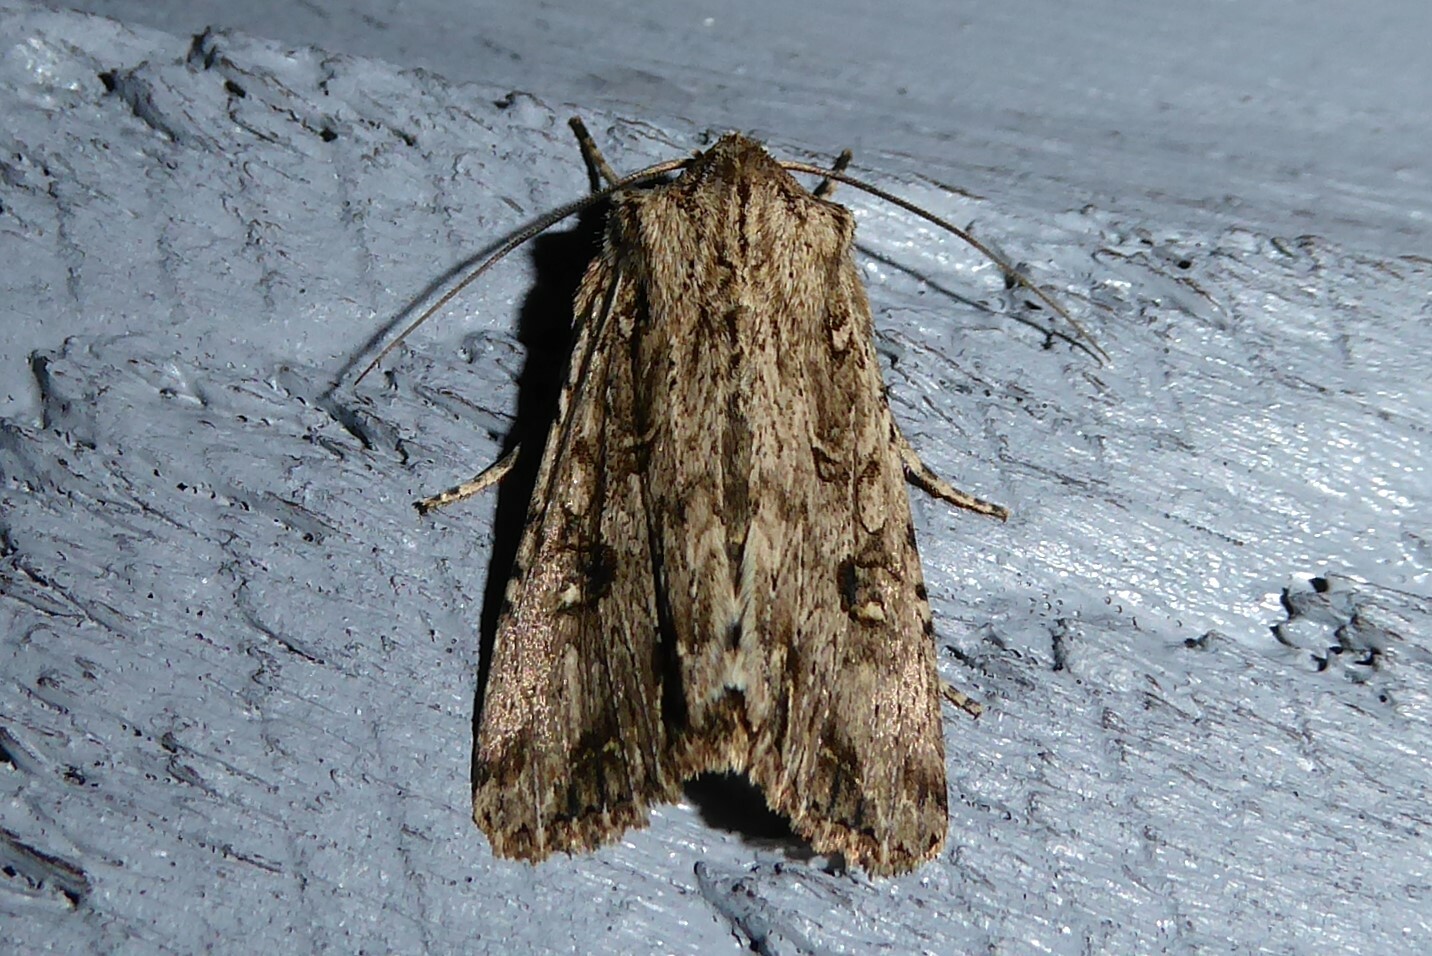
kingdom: Animalia
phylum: Arthropoda
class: Insecta
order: Lepidoptera
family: Noctuidae
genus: Ichneutica
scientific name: Ichneutica lignana
